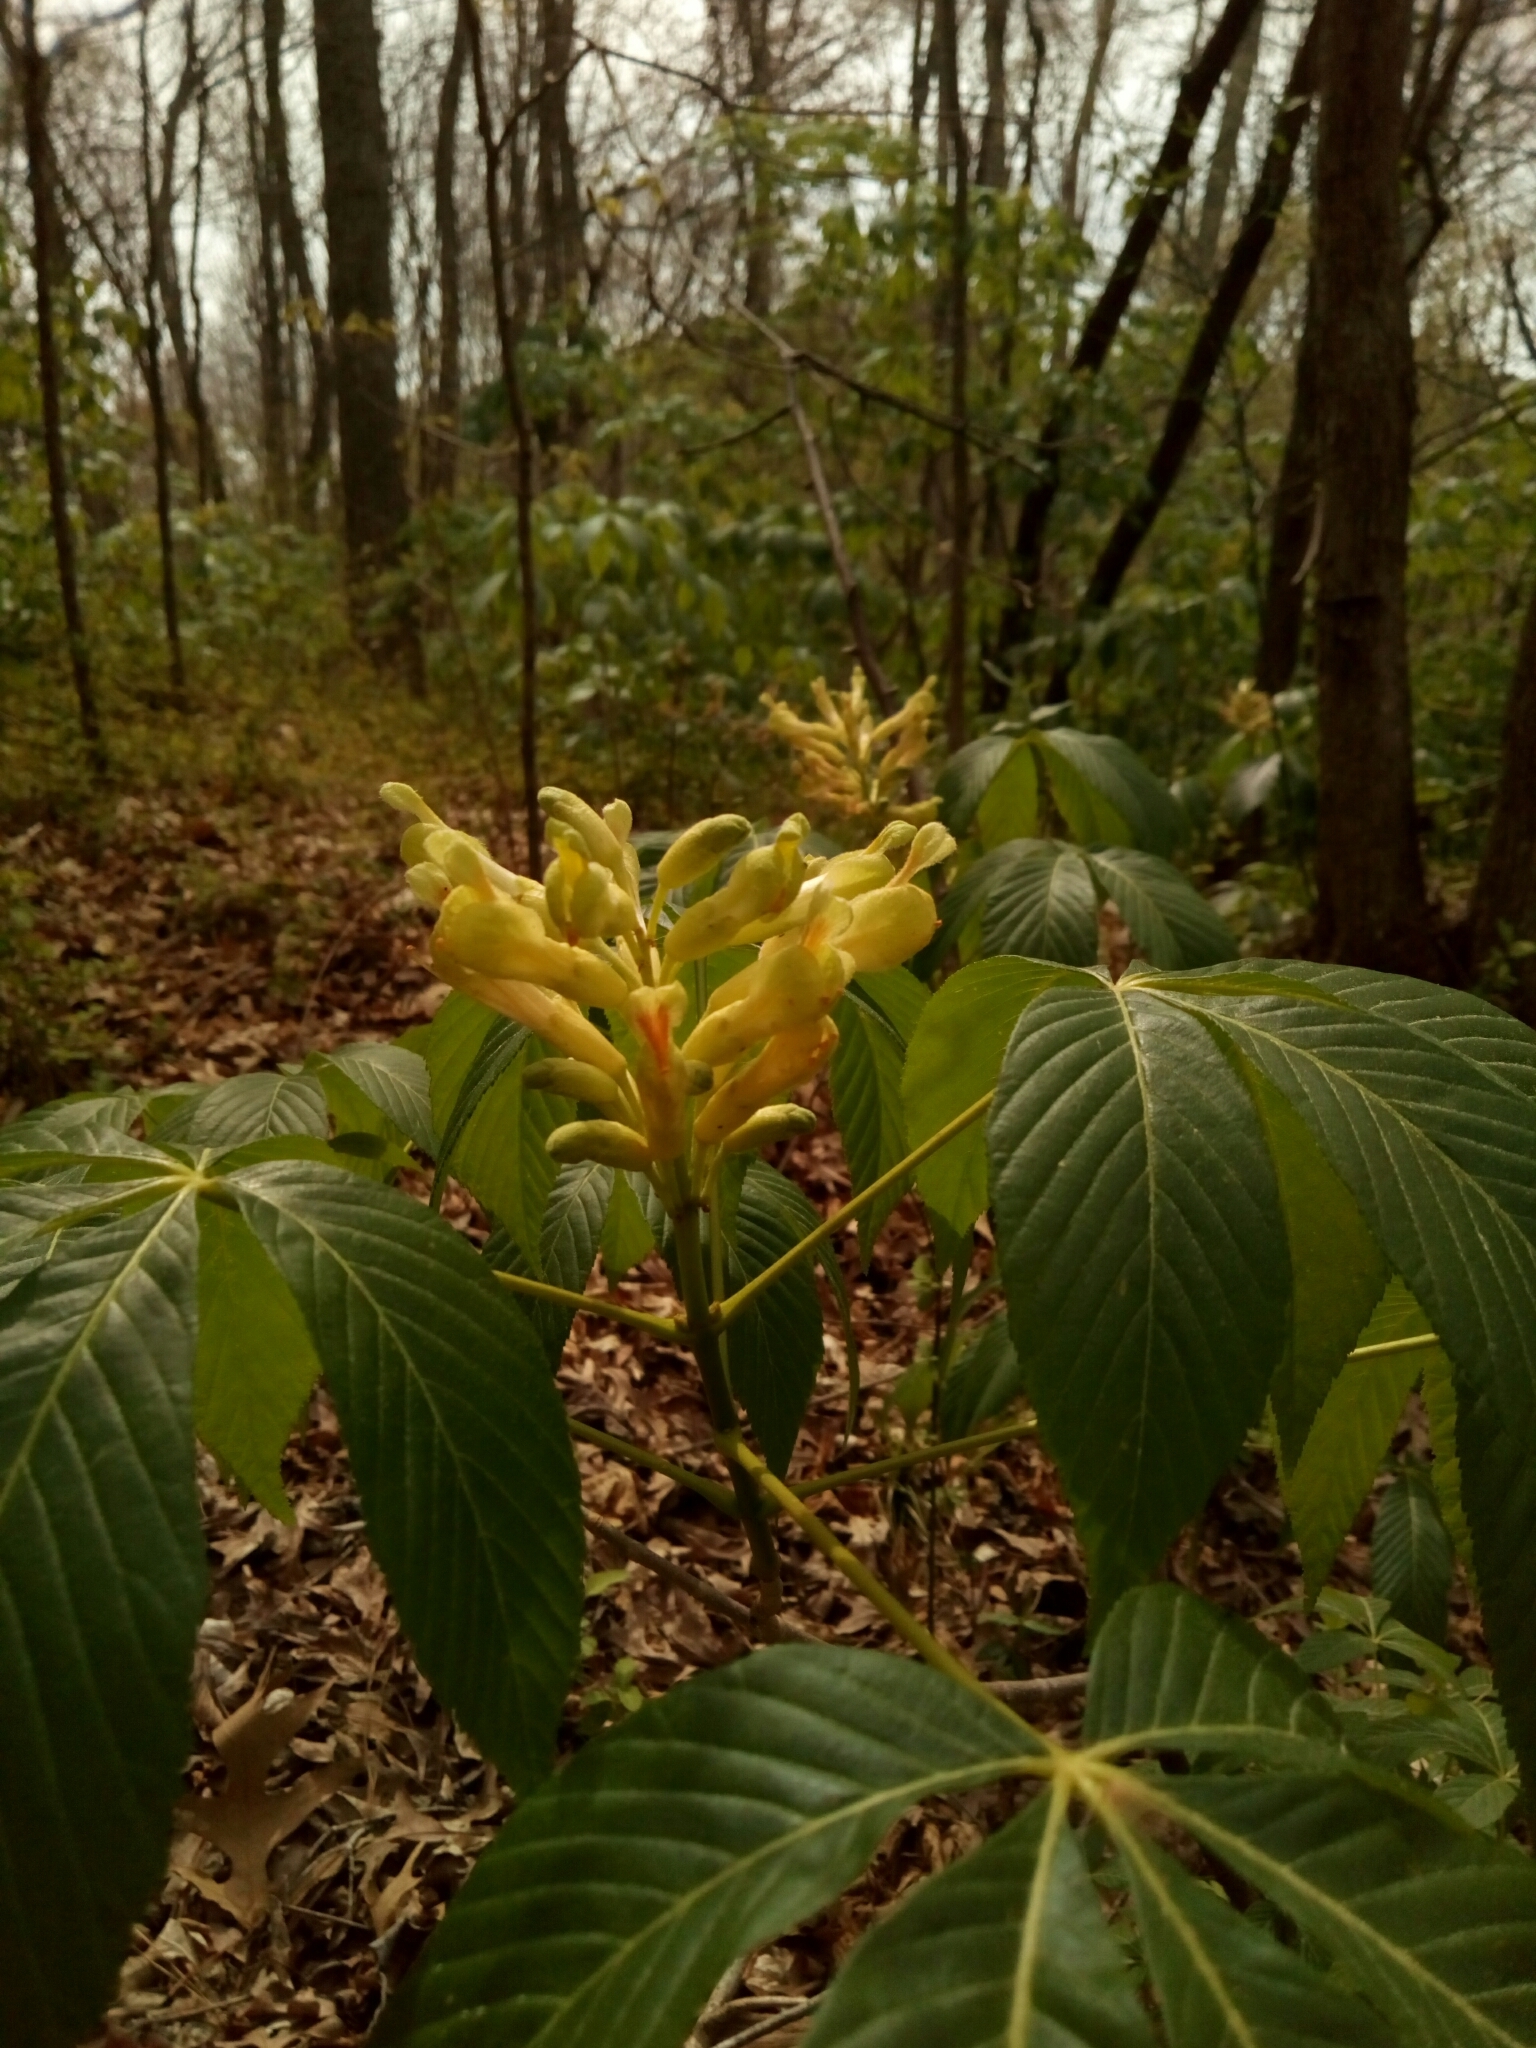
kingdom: Plantae
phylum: Tracheophyta
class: Magnoliopsida
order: Sapindales
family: Sapindaceae
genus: Aesculus
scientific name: Aesculus sylvatica
